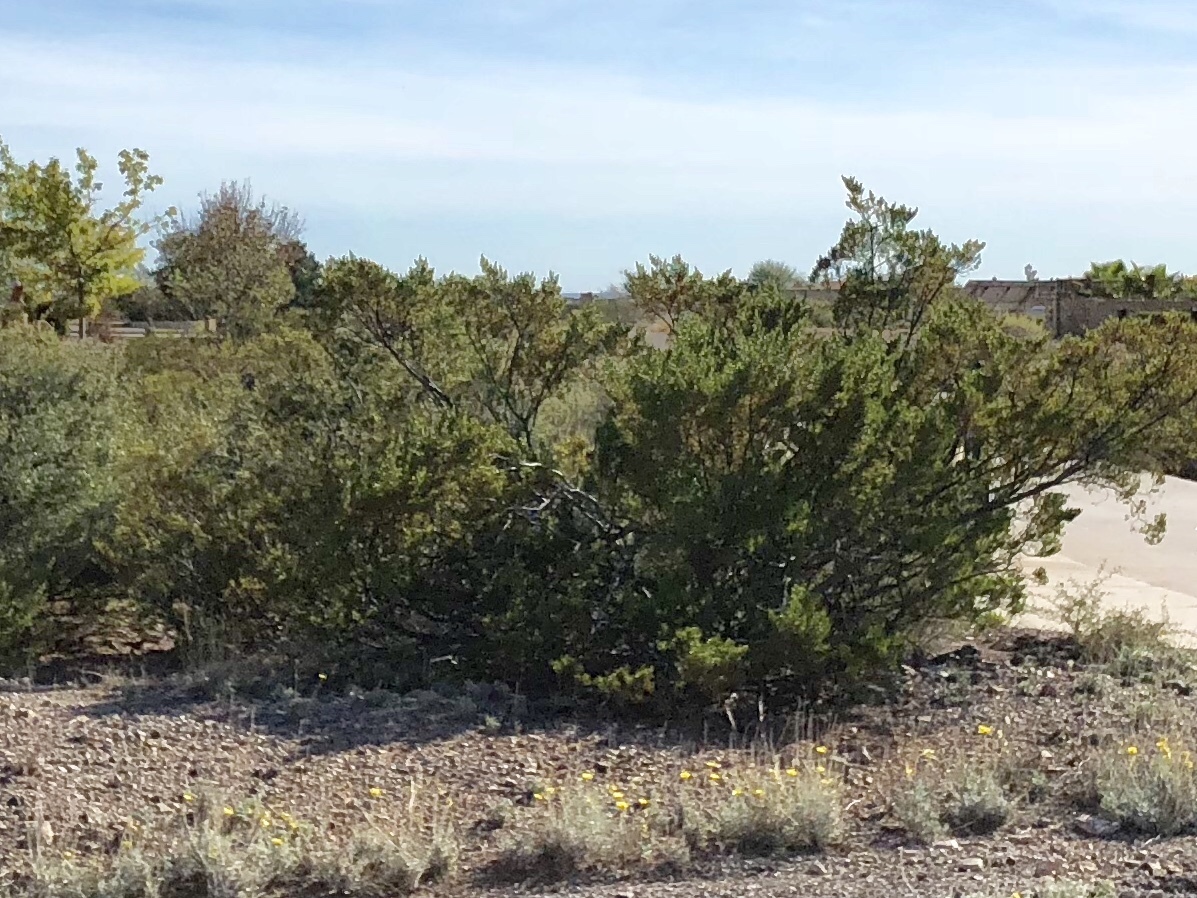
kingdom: Plantae
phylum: Tracheophyta
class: Magnoliopsida
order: Zygophyllales
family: Zygophyllaceae
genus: Larrea
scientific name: Larrea tridentata
